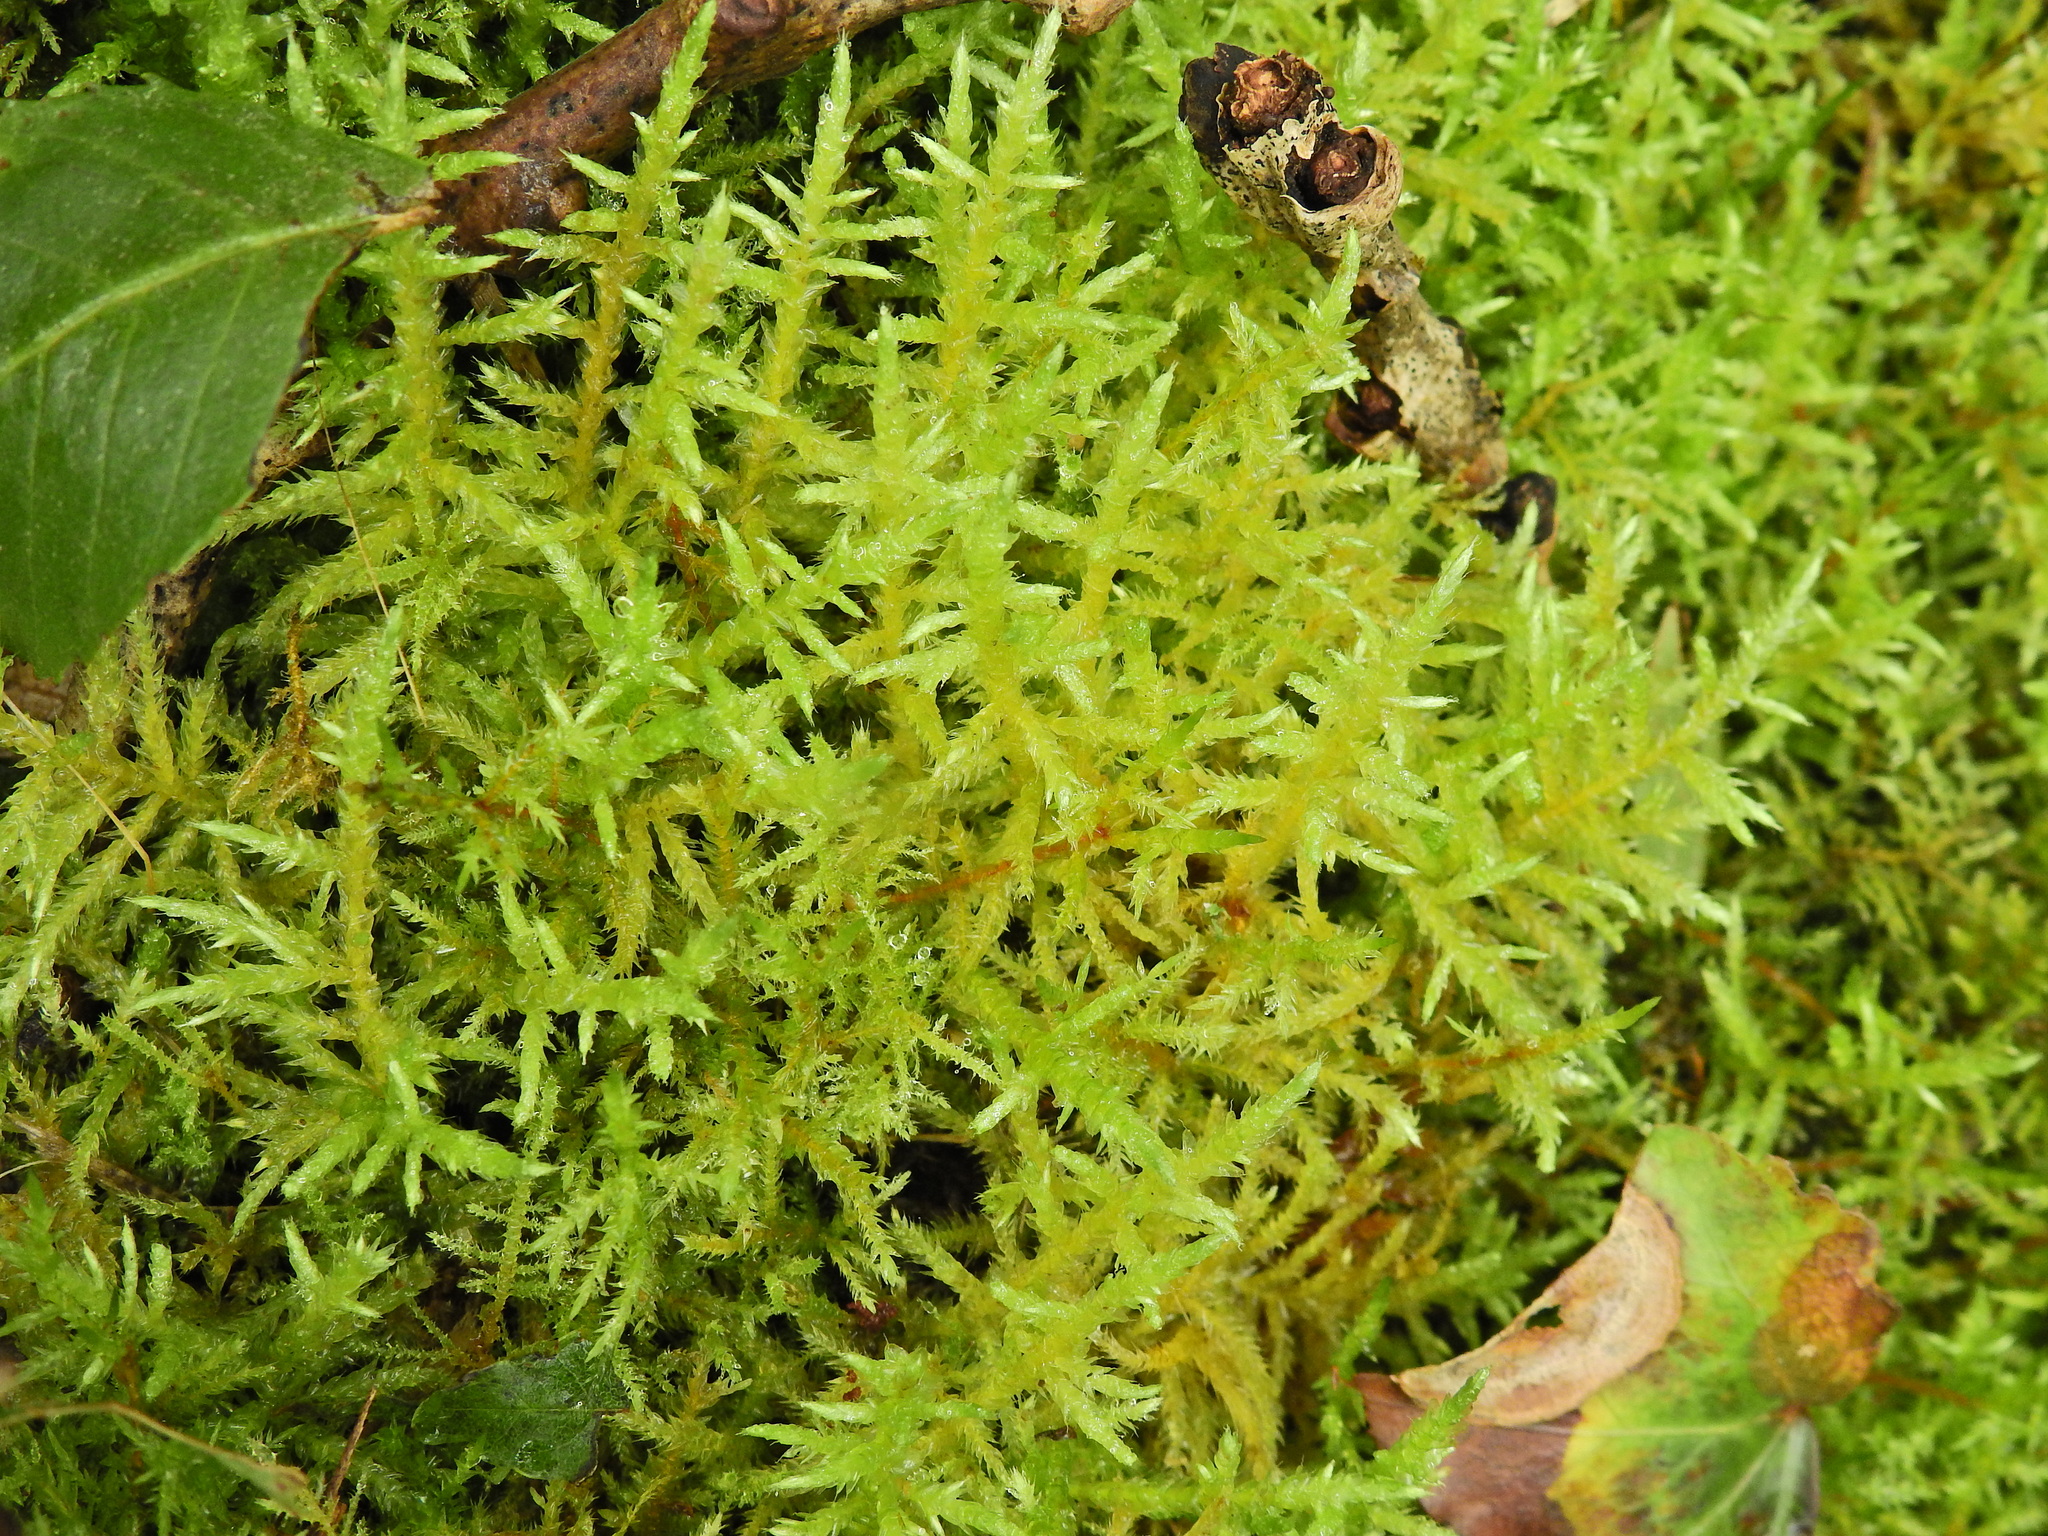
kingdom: Plantae
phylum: Bryophyta
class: Bryopsida
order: Hypnales
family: Brachytheciaceae
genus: Cirriphyllum
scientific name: Cirriphyllum piliferum
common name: Hair-pointed moss
